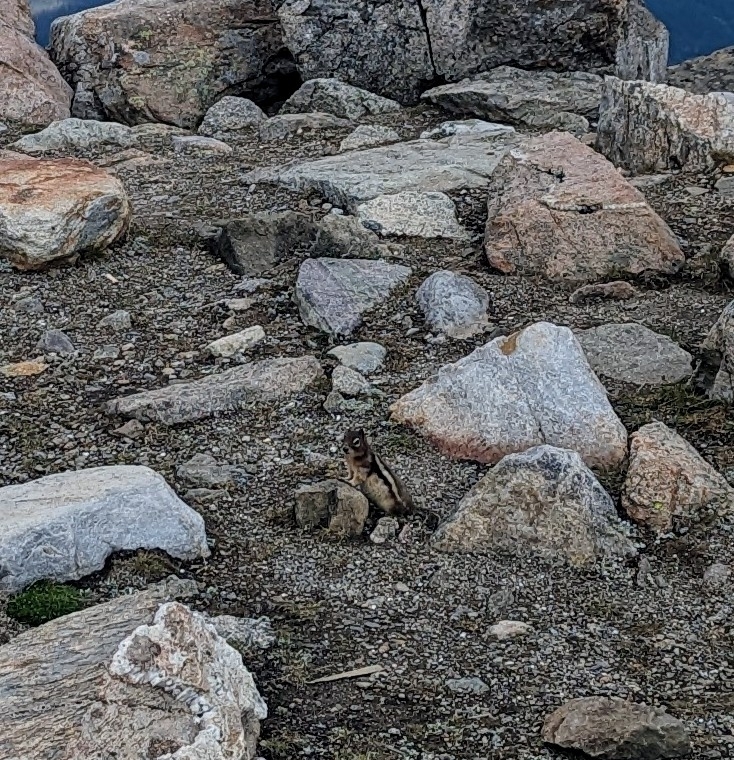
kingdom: Animalia
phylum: Chordata
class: Mammalia
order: Rodentia
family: Sciuridae
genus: Callospermophilus
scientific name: Callospermophilus lateralis
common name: Golden-mantled ground squirrel
